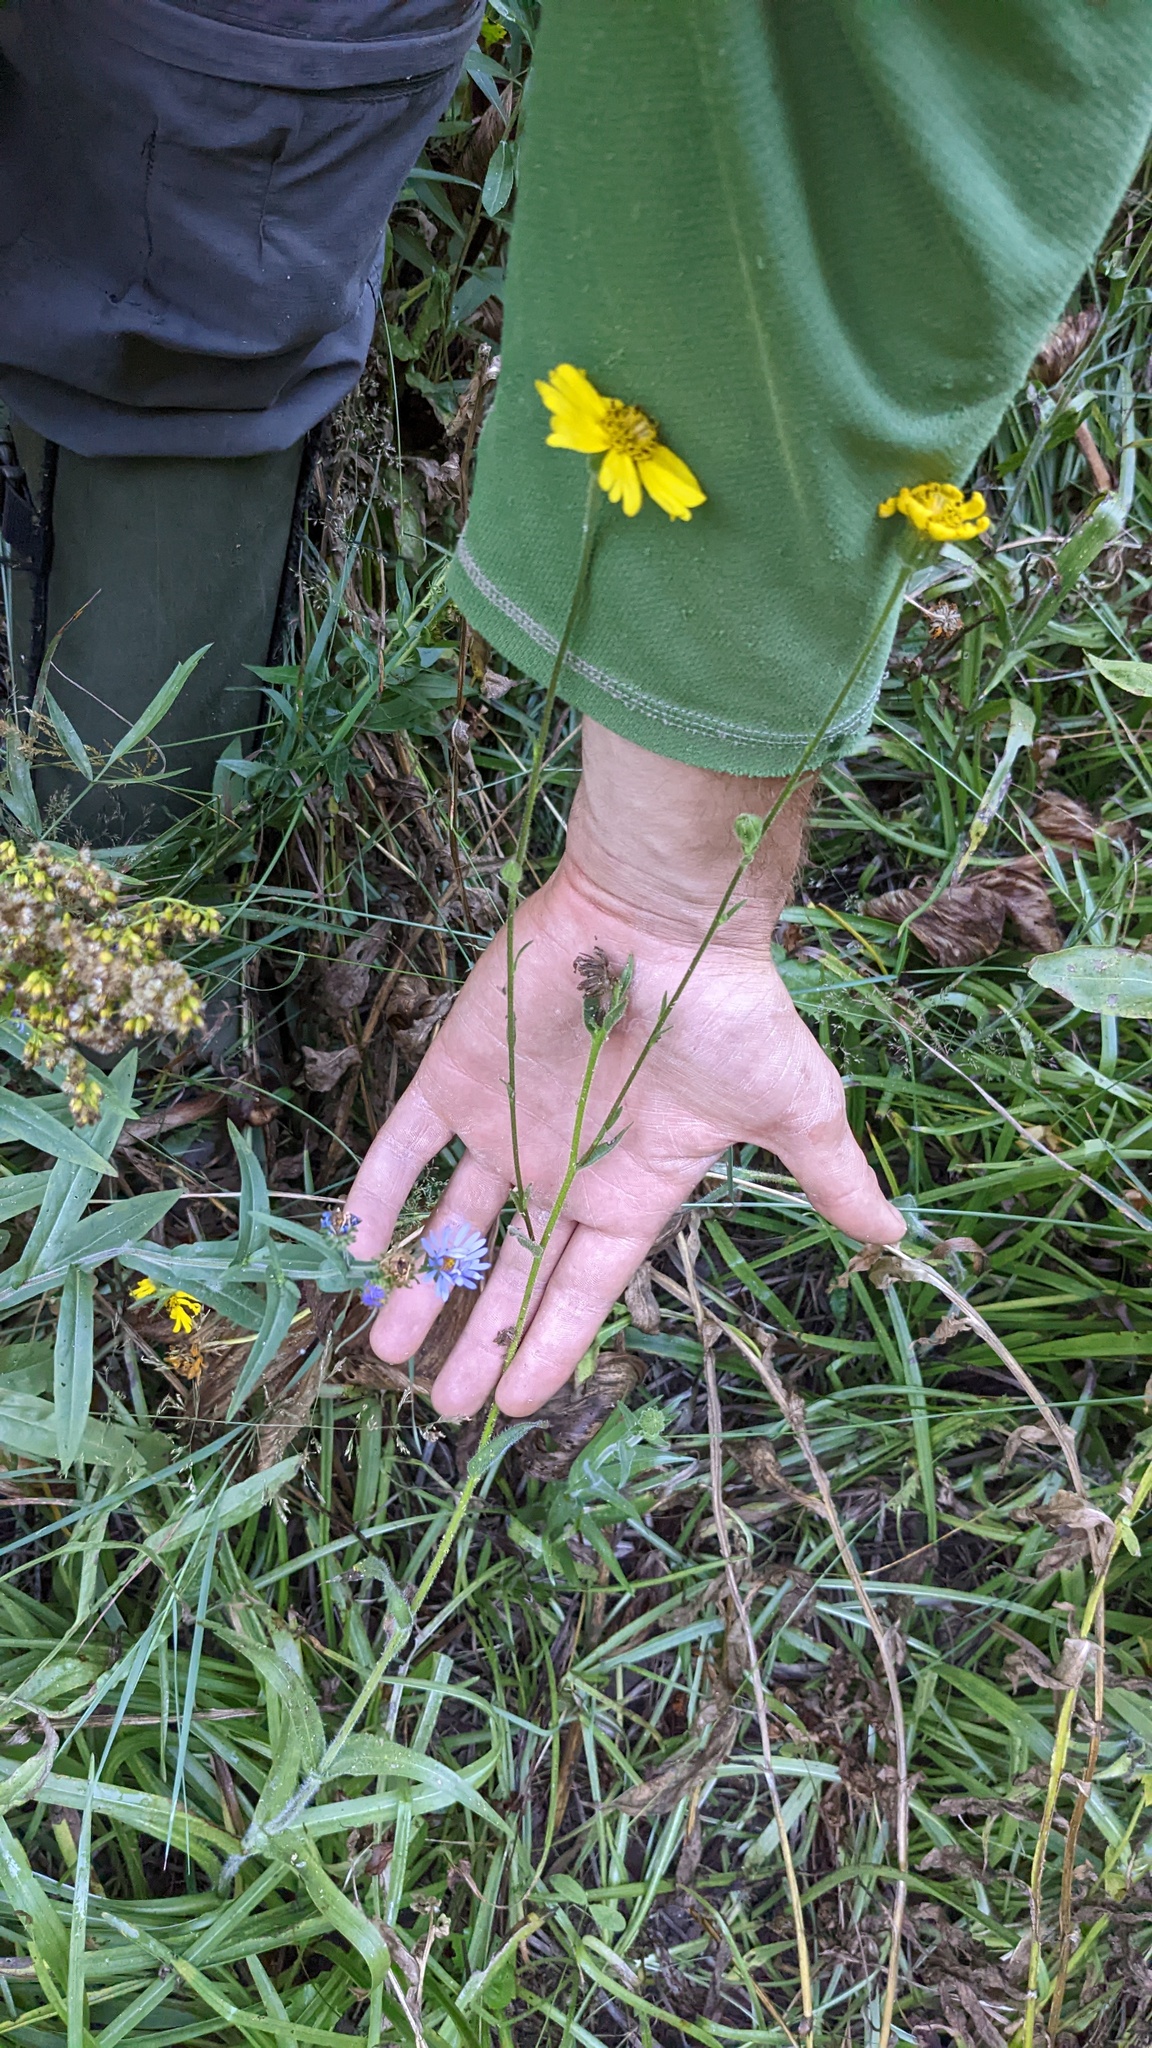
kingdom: Plantae
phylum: Tracheophyta
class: Magnoliopsida
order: Asterales
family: Asteraceae
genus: Kyhosia
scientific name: Kyhosia bolanderi
